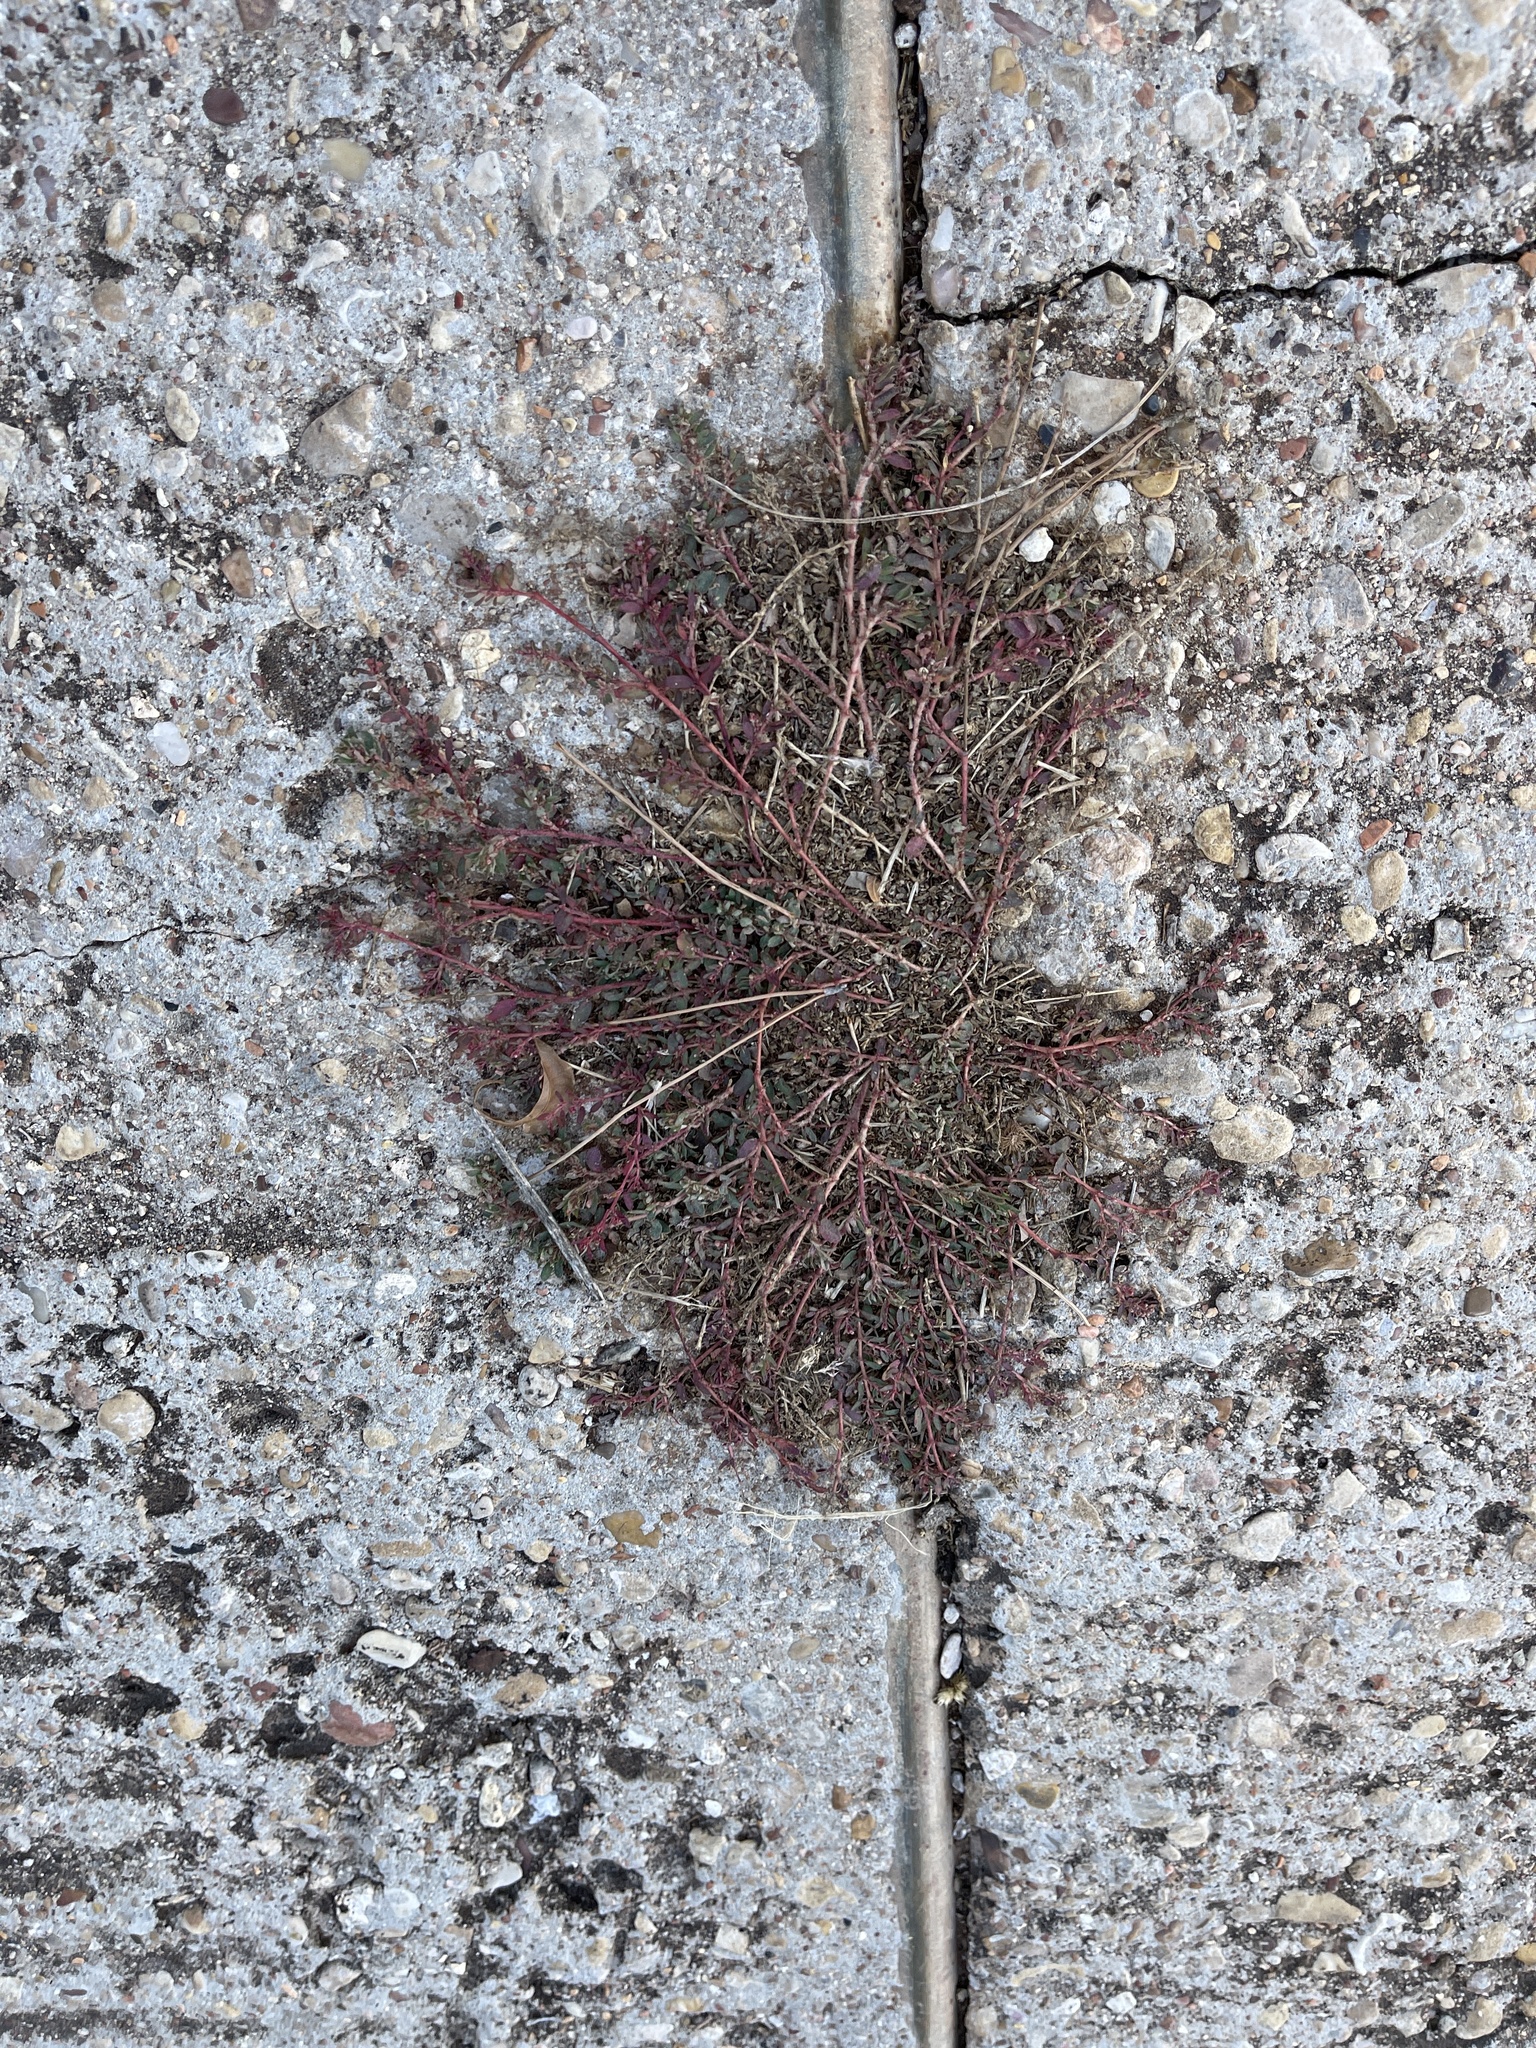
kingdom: Plantae
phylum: Tracheophyta
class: Magnoliopsida
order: Malpighiales
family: Euphorbiaceae
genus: Euphorbia
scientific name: Euphorbia maculata
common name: Spotted spurge
